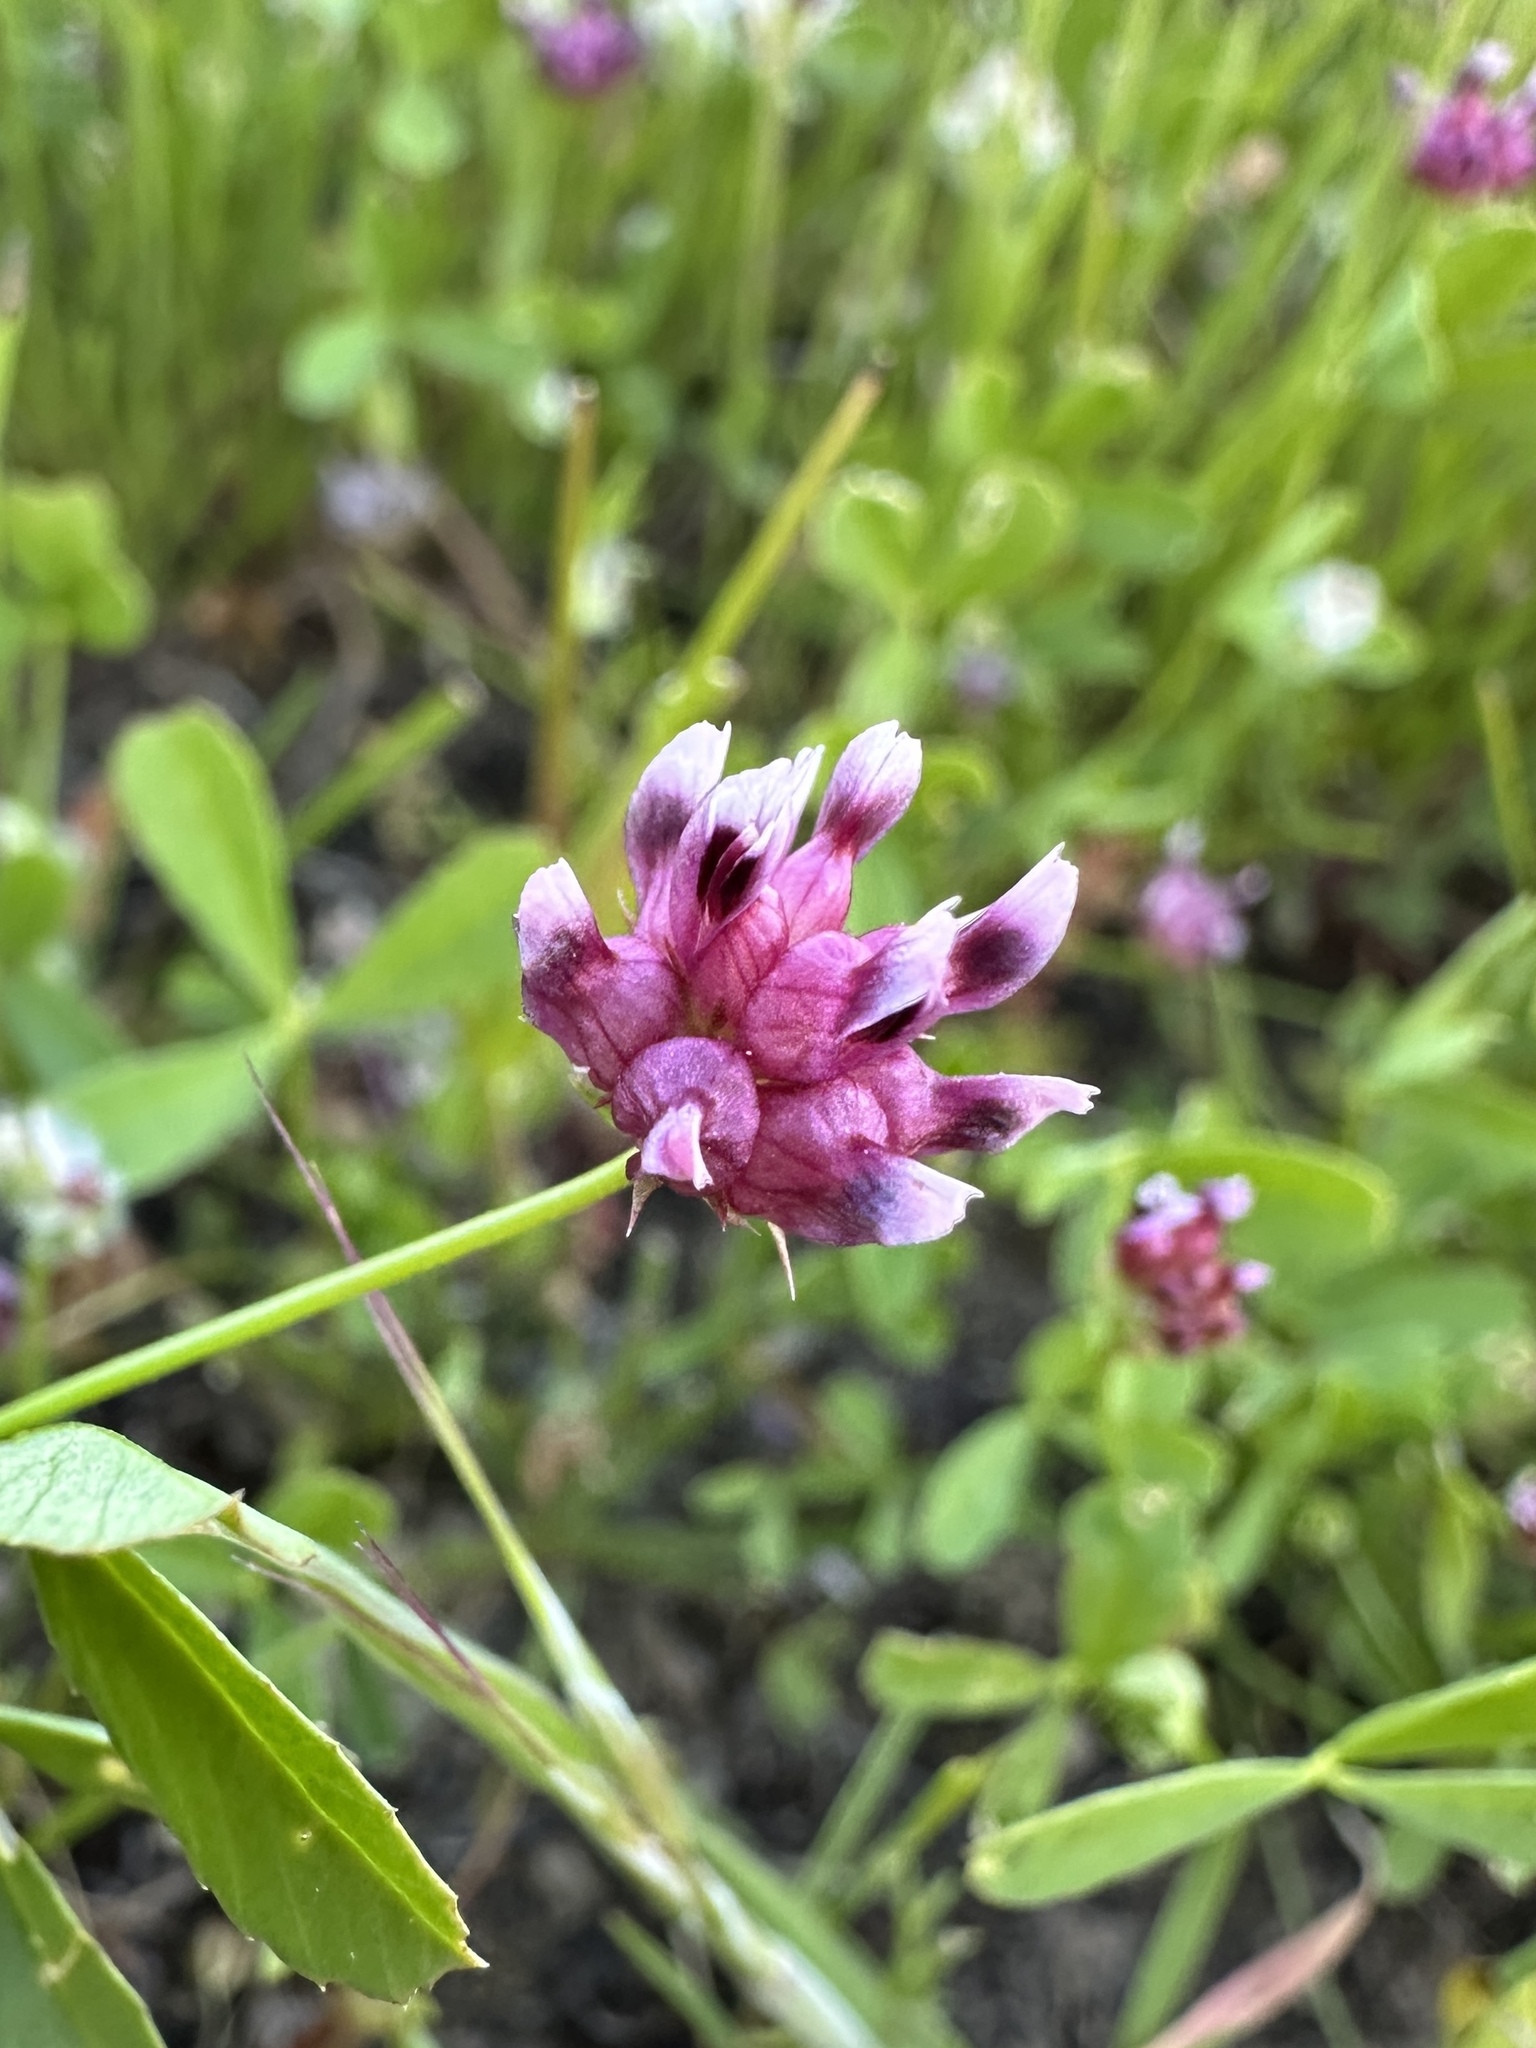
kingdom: Plantae
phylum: Tracheophyta
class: Magnoliopsida
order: Fabales
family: Fabaceae
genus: Trifolium
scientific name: Trifolium depauperatum
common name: Poverty clover
